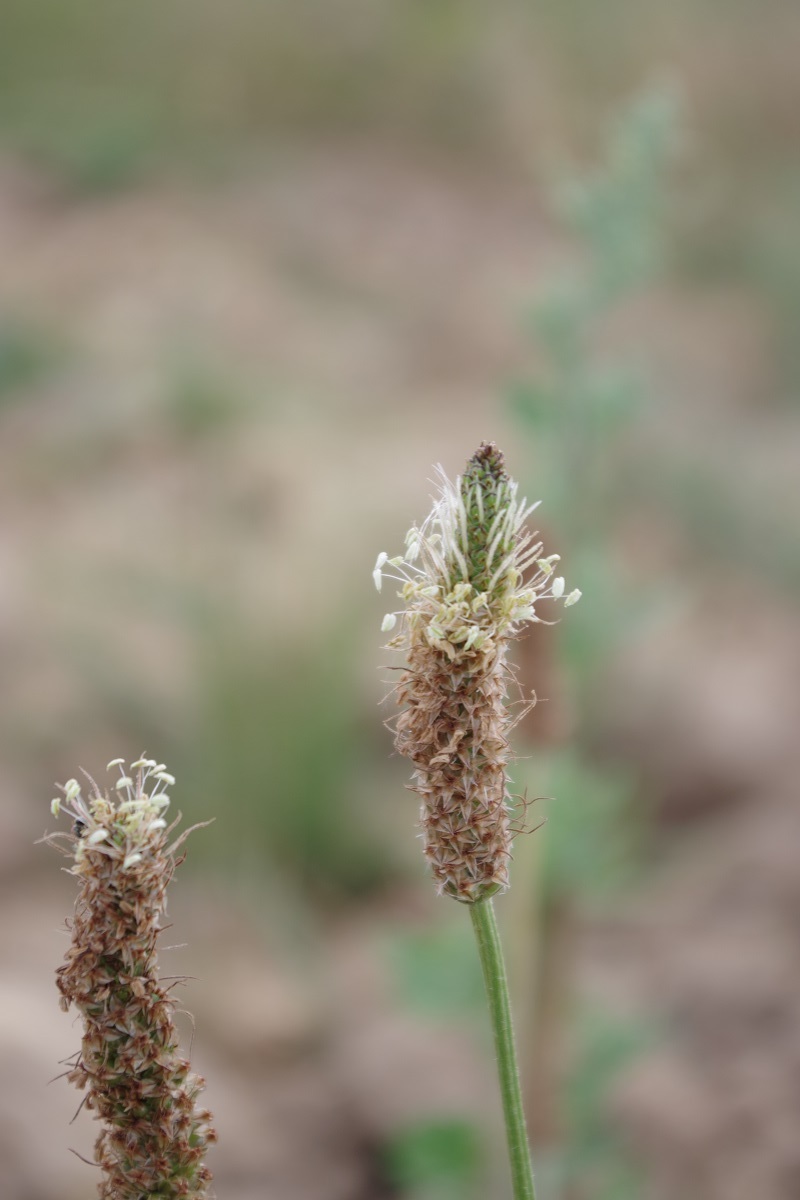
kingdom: Plantae
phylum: Tracheophyta
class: Magnoliopsida
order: Lamiales
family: Plantaginaceae
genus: Plantago
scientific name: Plantago lanceolata
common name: Ribwort plantain
